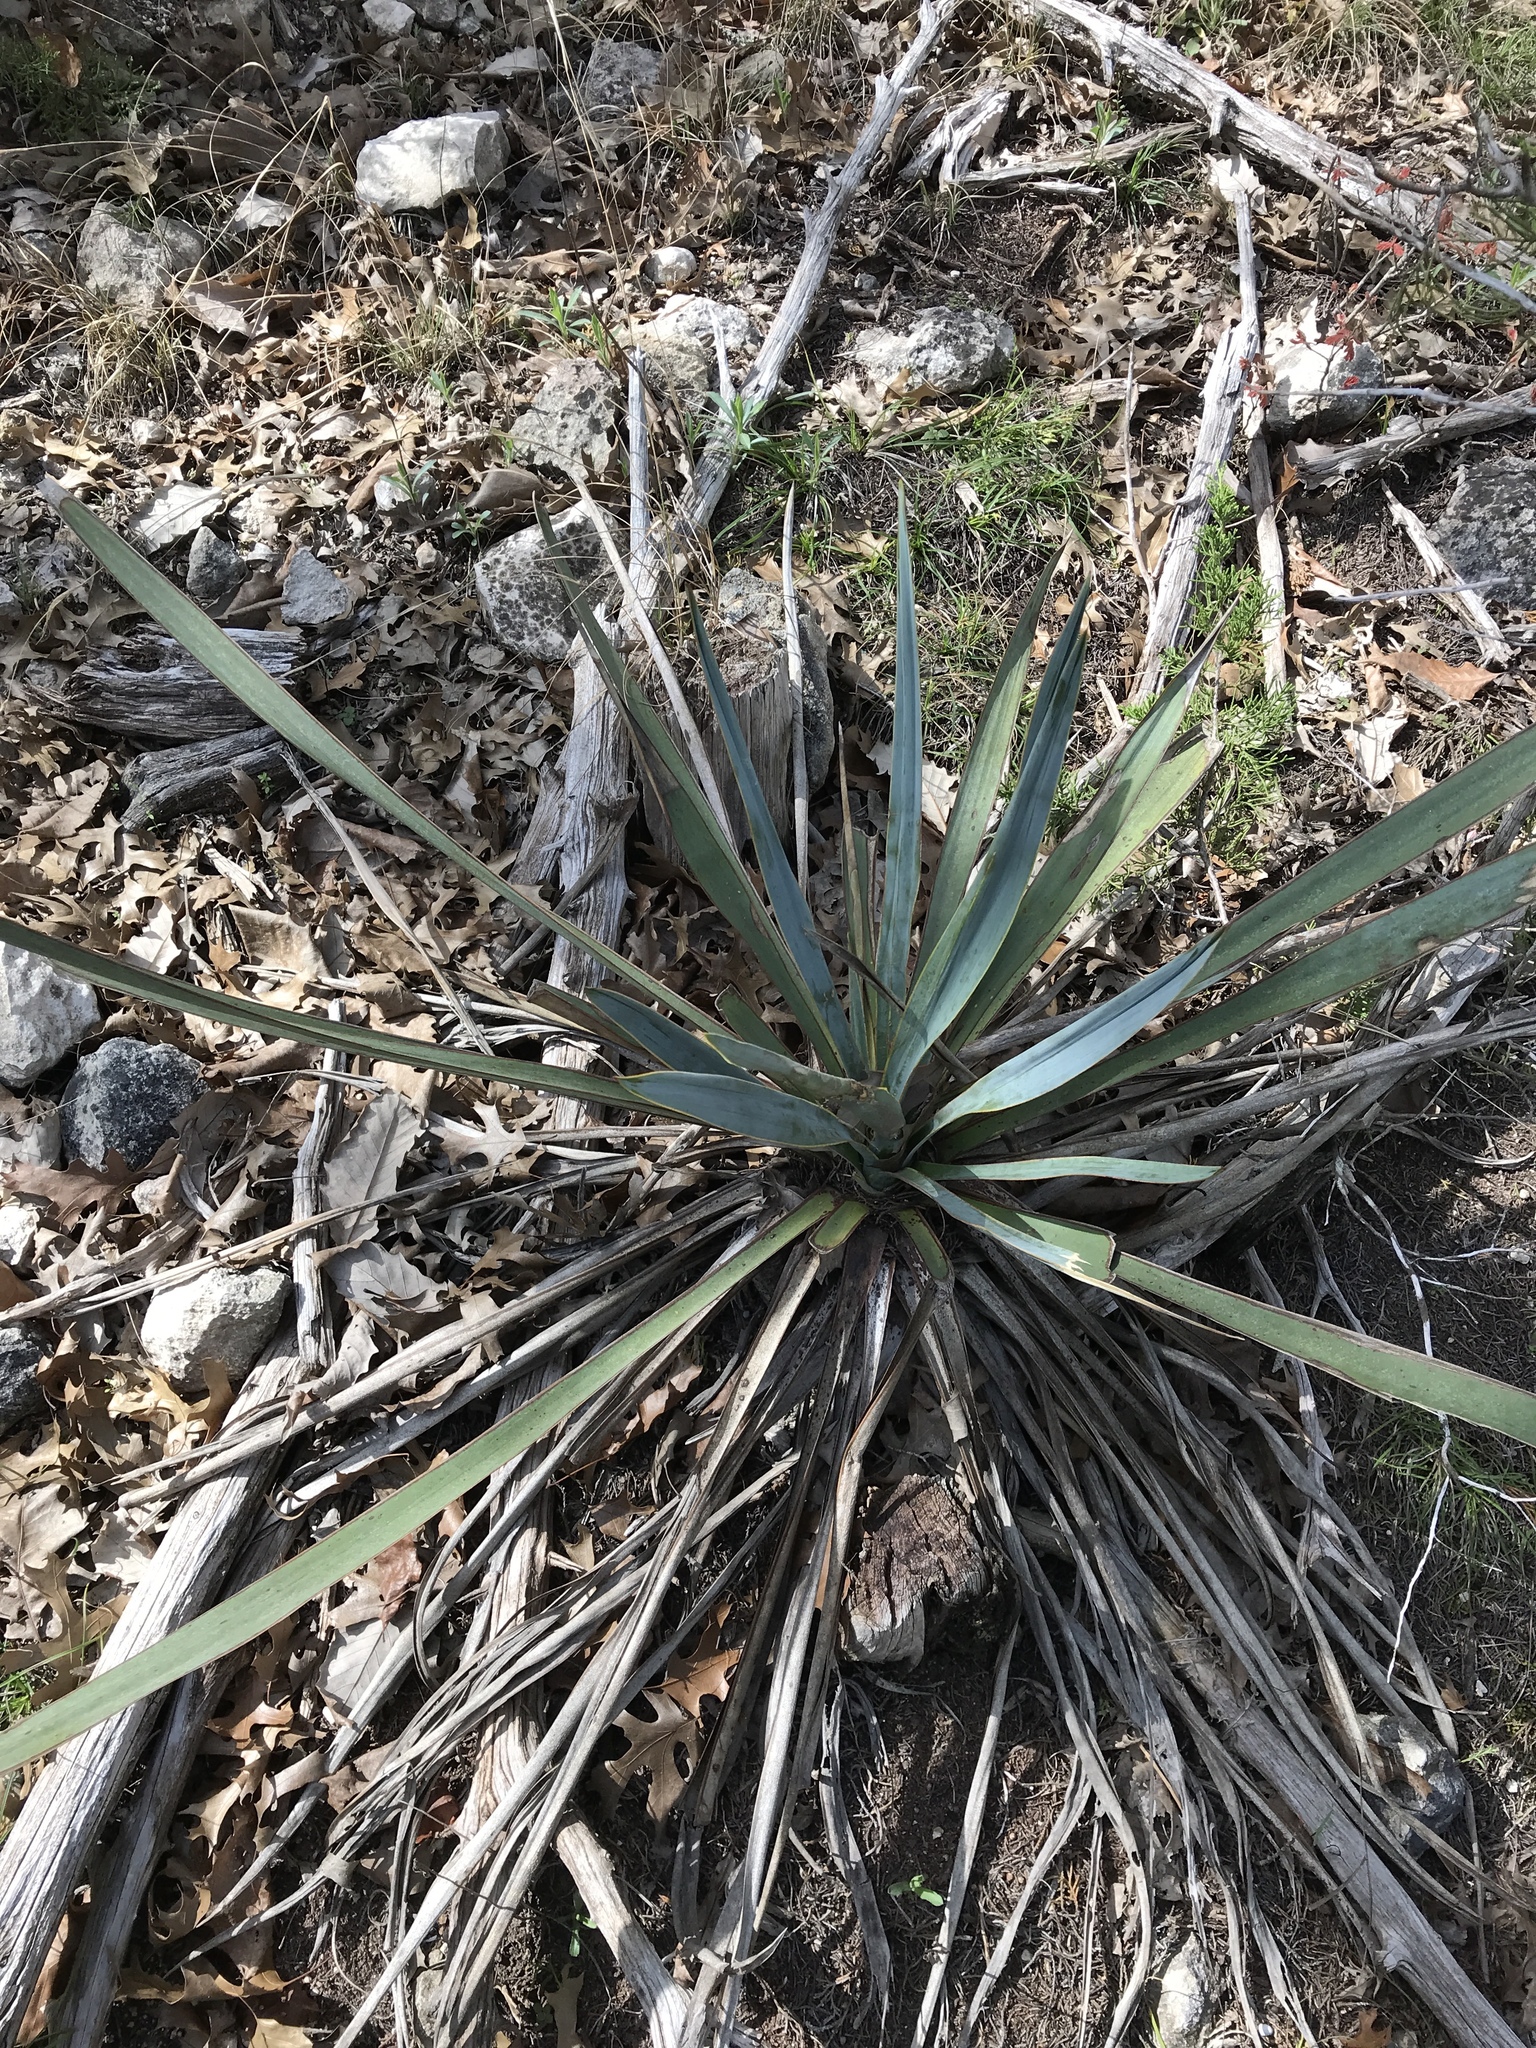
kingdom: Plantae
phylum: Tracheophyta
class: Liliopsida
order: Asparagales
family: Asparagaceae
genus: Yucca
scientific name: Yucca pallida
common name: Pale leaf yucca
